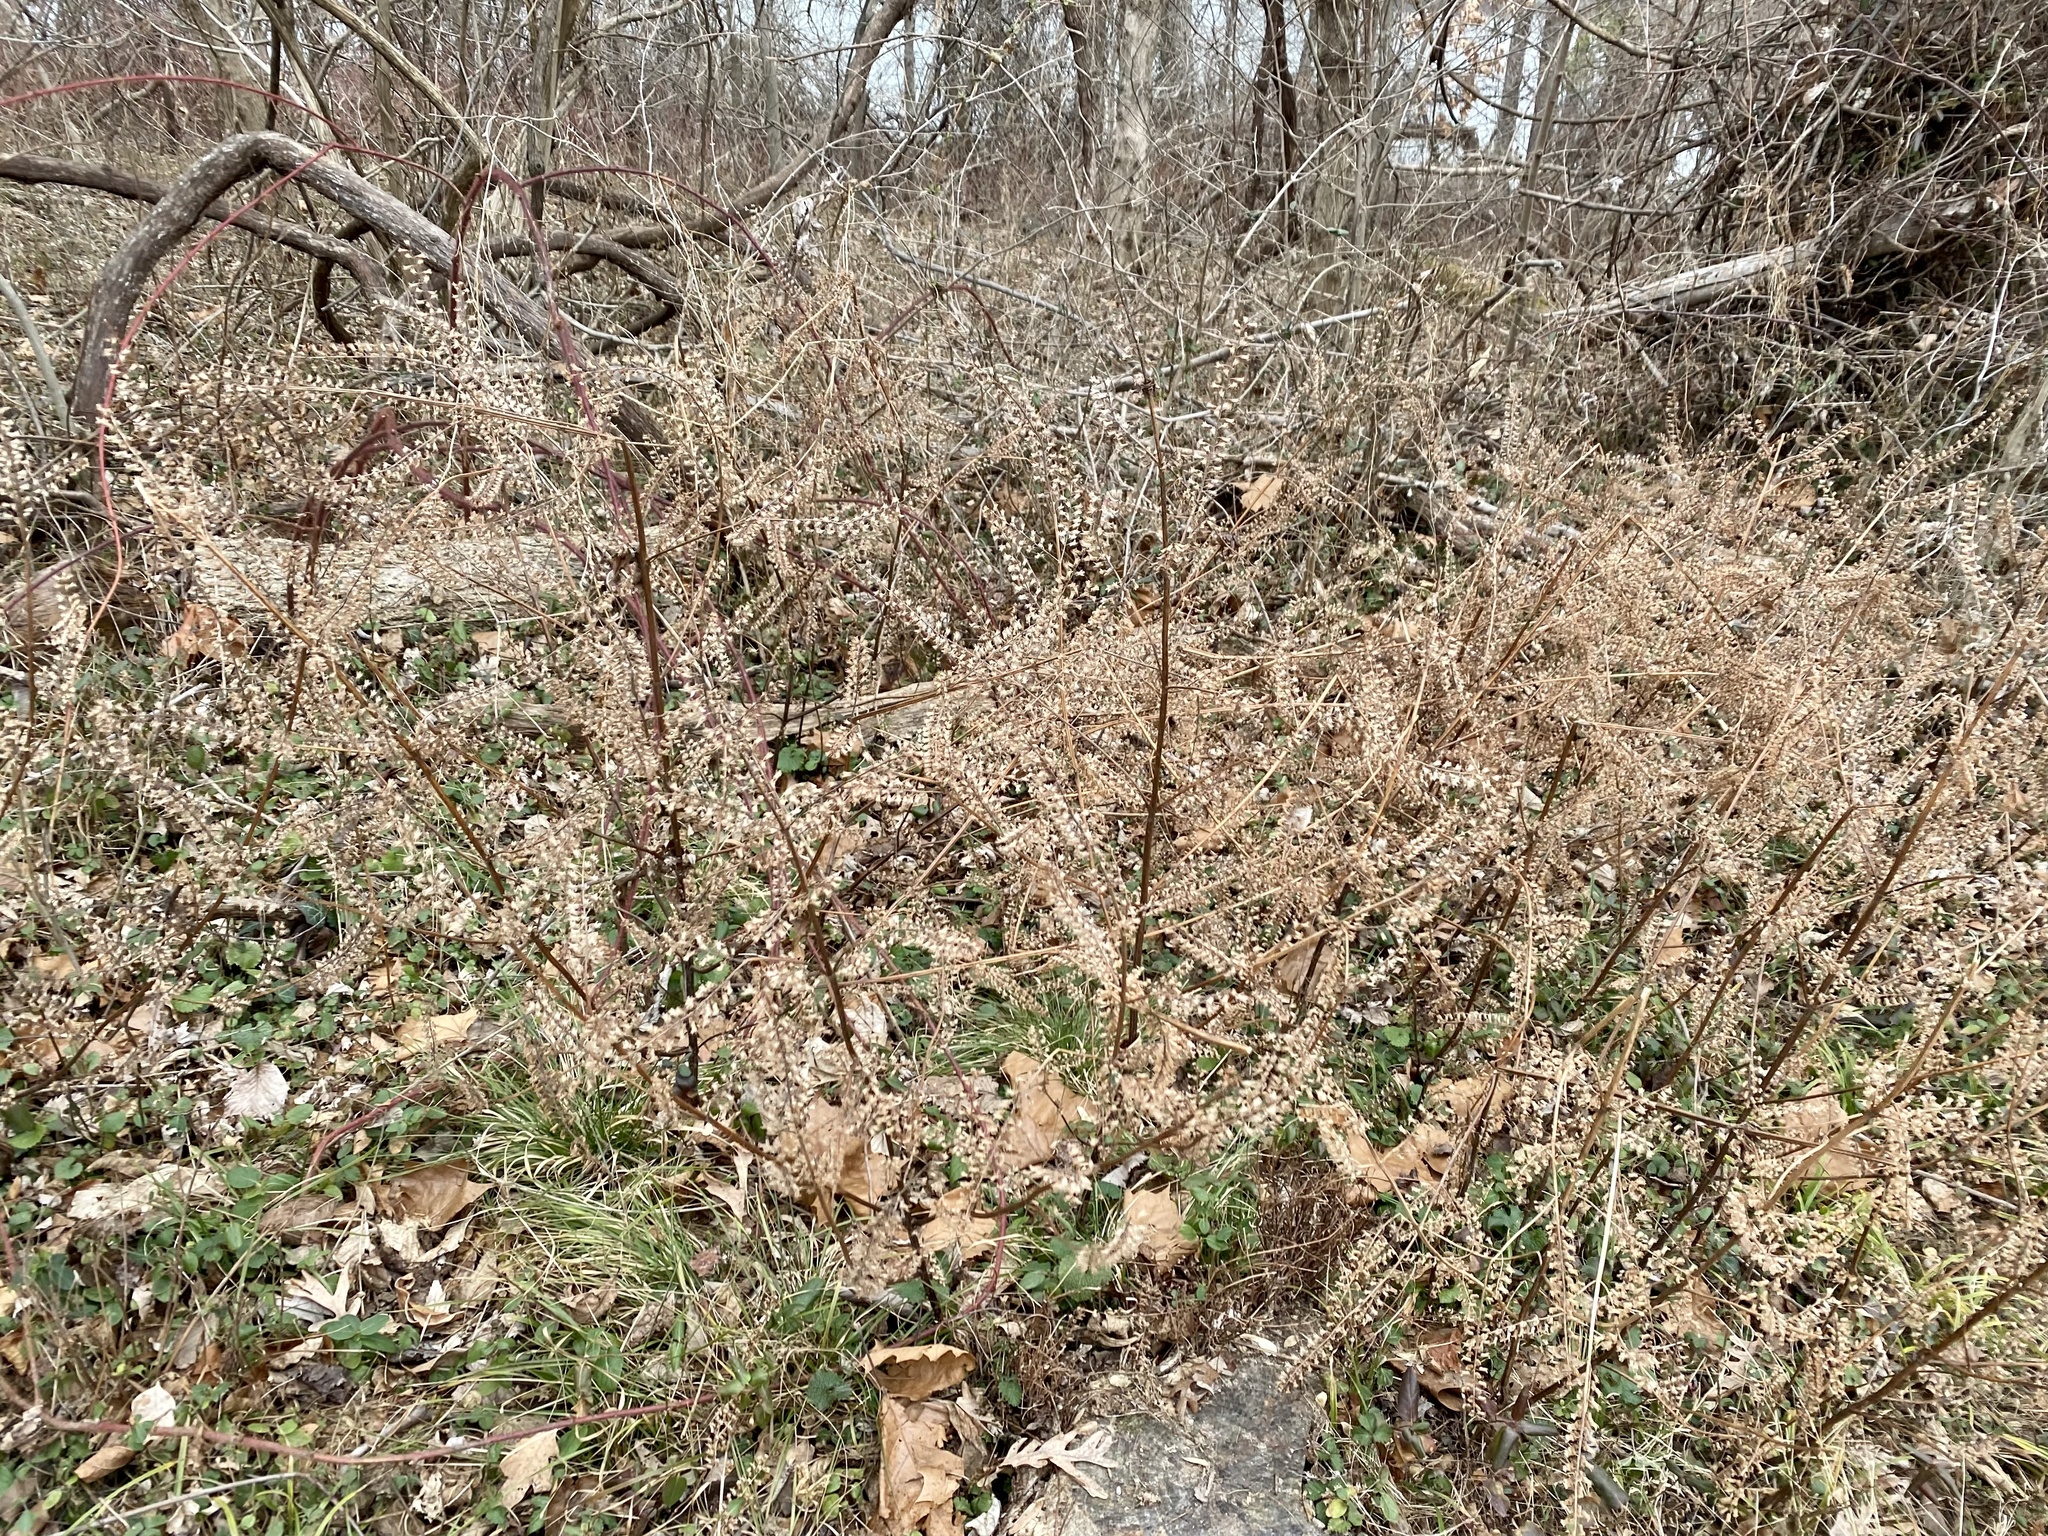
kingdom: Plantae
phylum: Tracheophyta
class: Magnoliopsida
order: Lamiales
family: Lamiaceae
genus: Perilla
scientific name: Perilla frutescens
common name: Perilla
